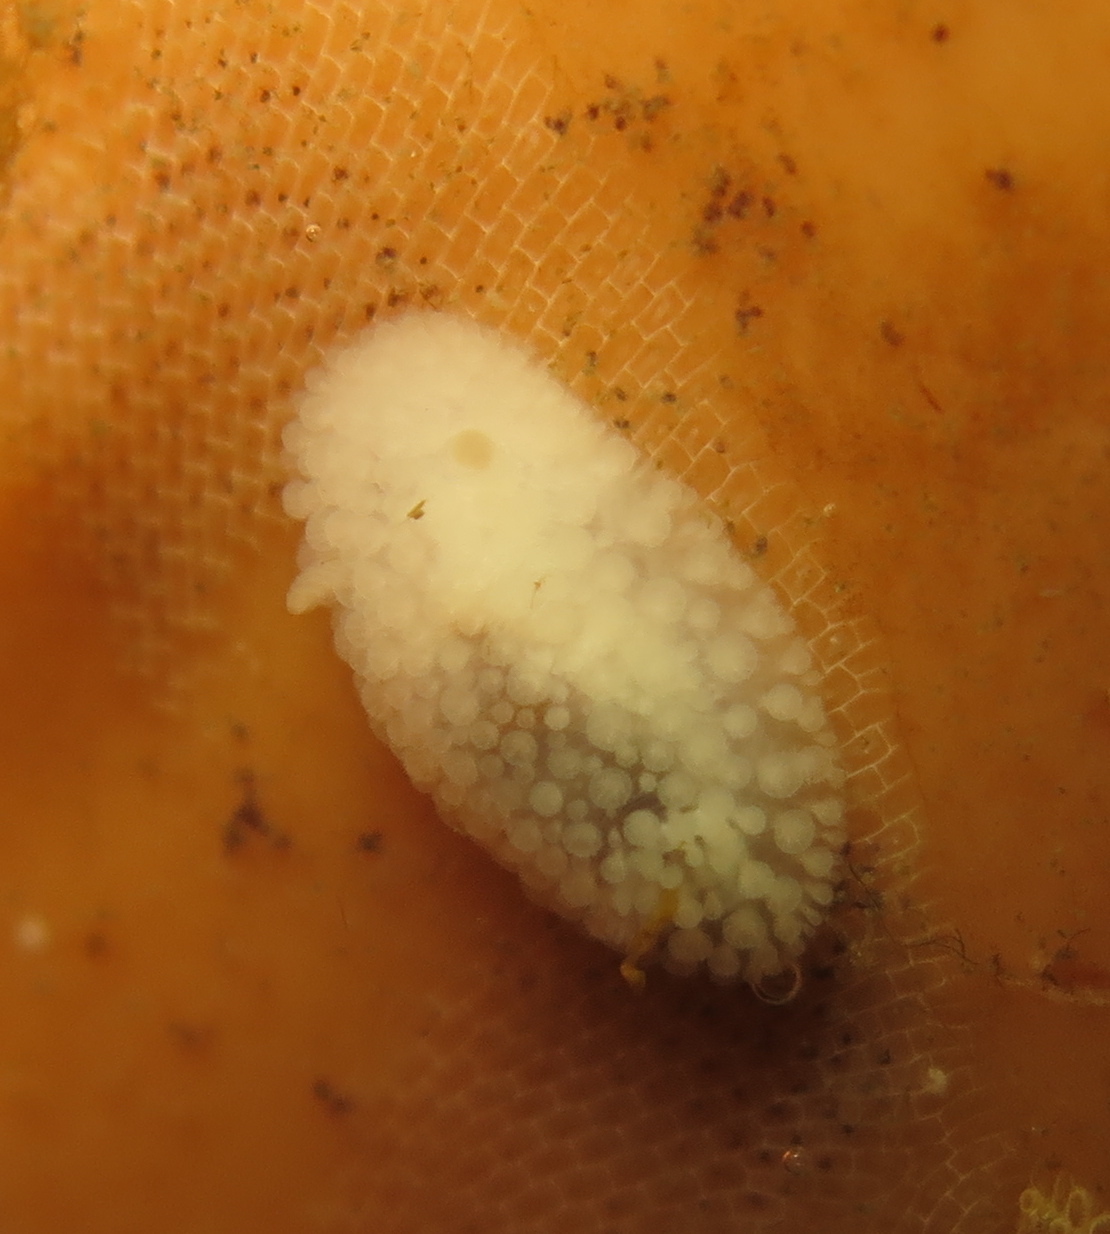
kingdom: Animalia
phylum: Mollusca
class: Gastropoda
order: Nudibranchia
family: Onchidorididae
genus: Onchidoris
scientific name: Onchidoris muricata
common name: Rough doris
